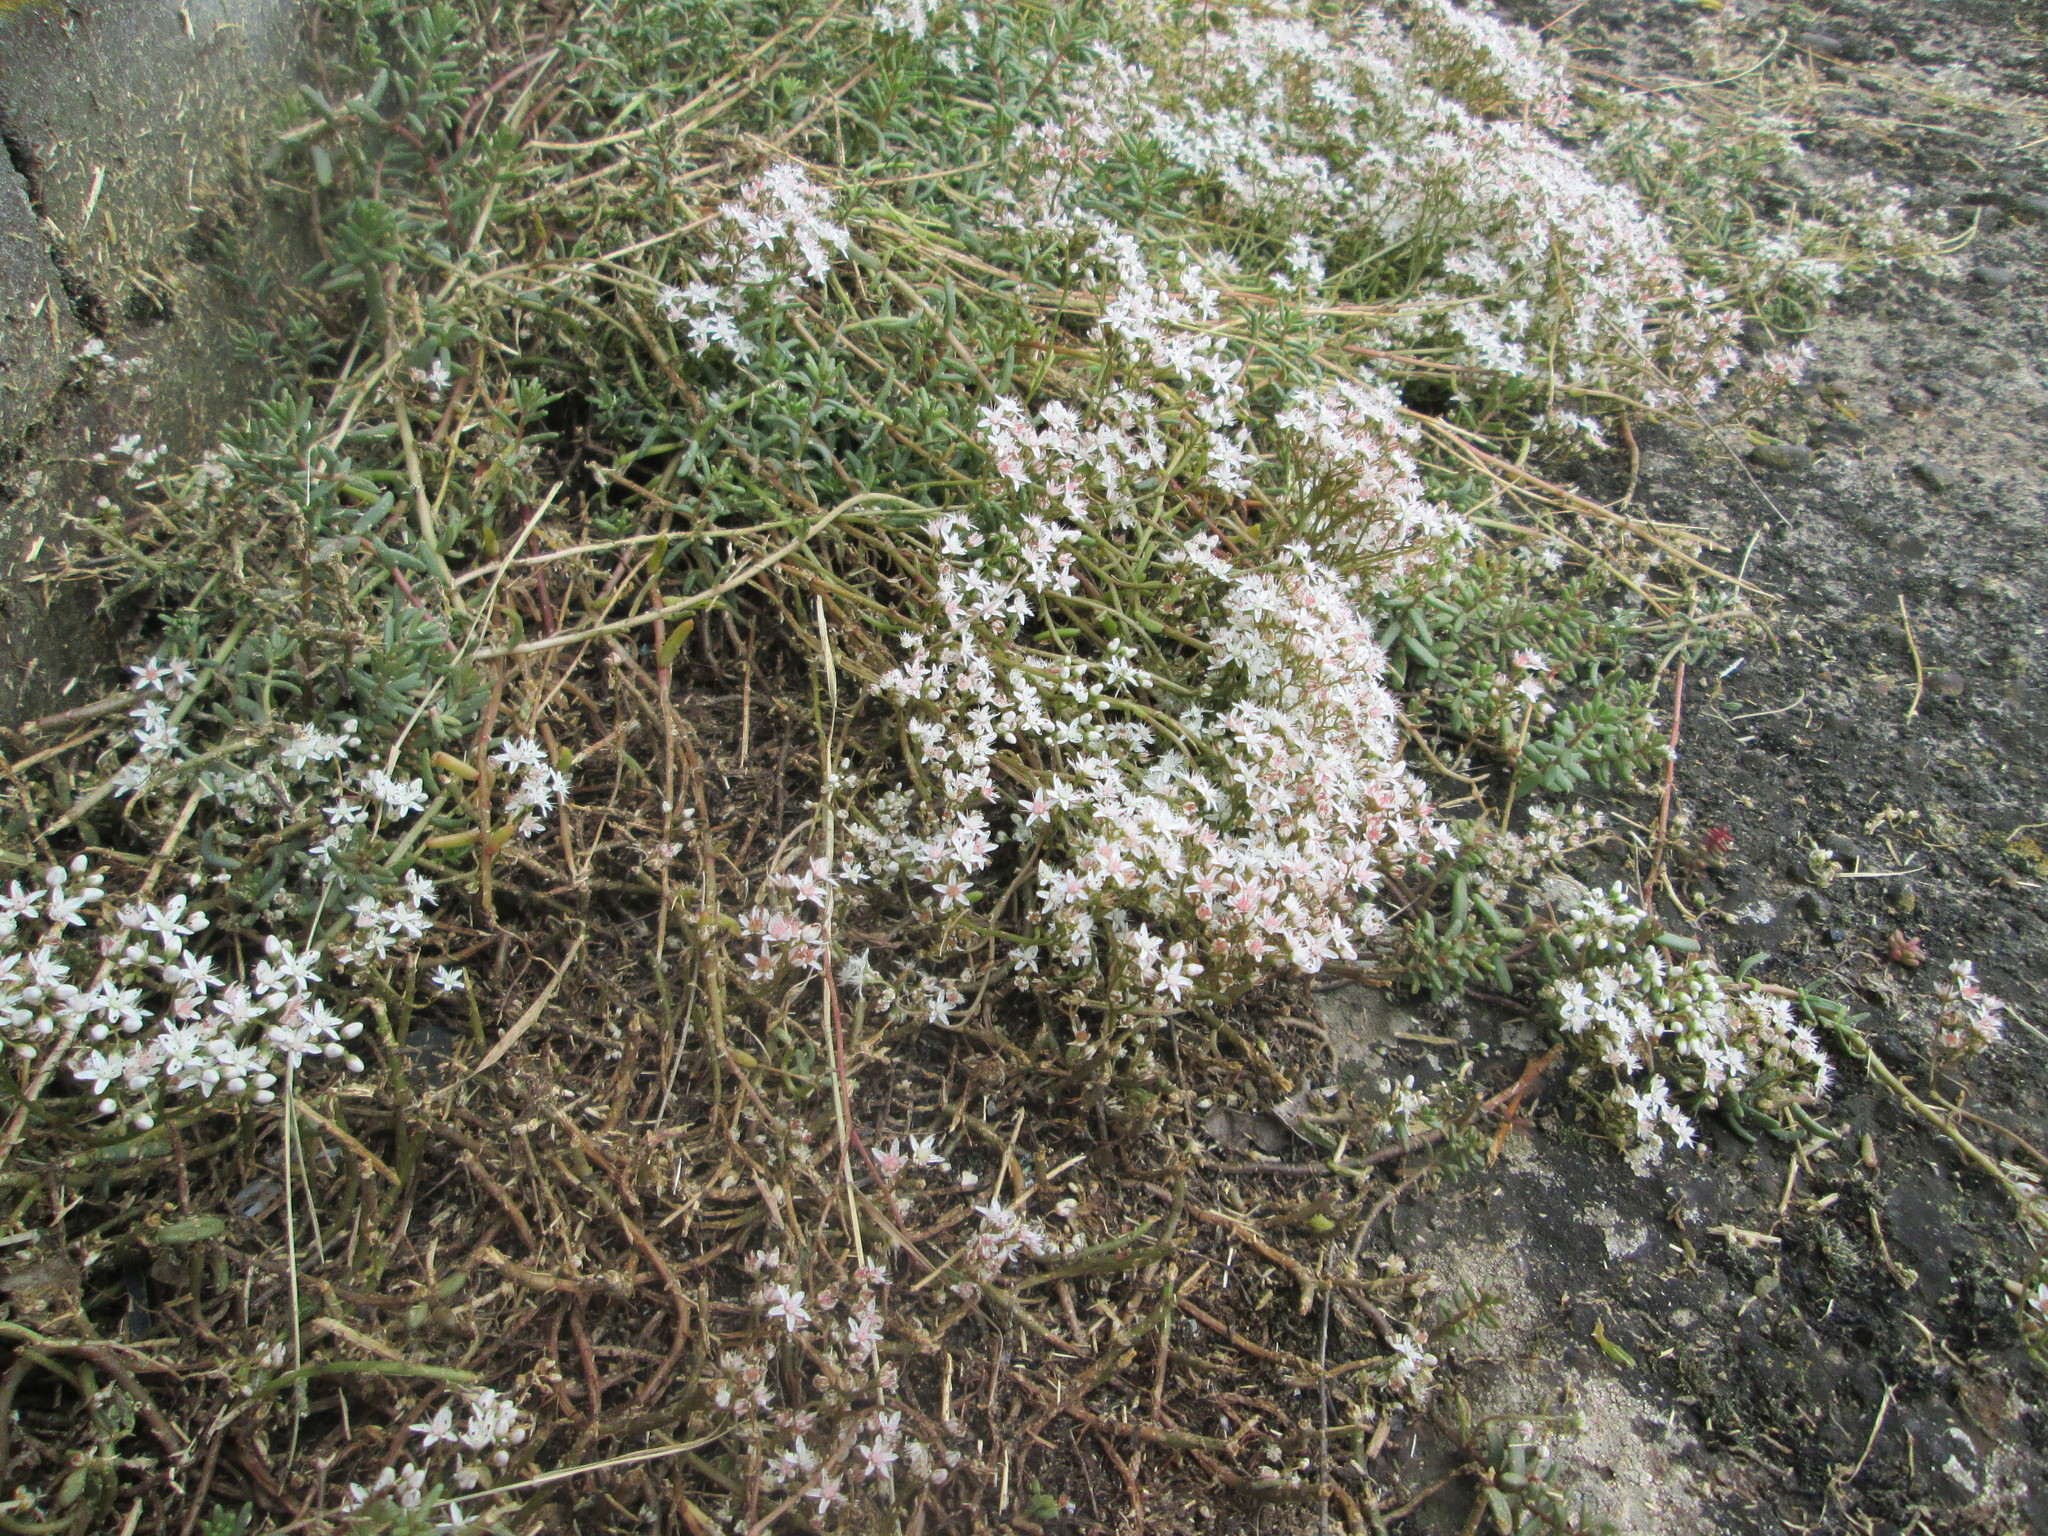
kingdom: Plantae
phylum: Tracheophyta
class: Magnoliopsida
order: Saxifragales
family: Crassulaceae
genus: Sedum
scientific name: Sedum album
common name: White stonecrop
